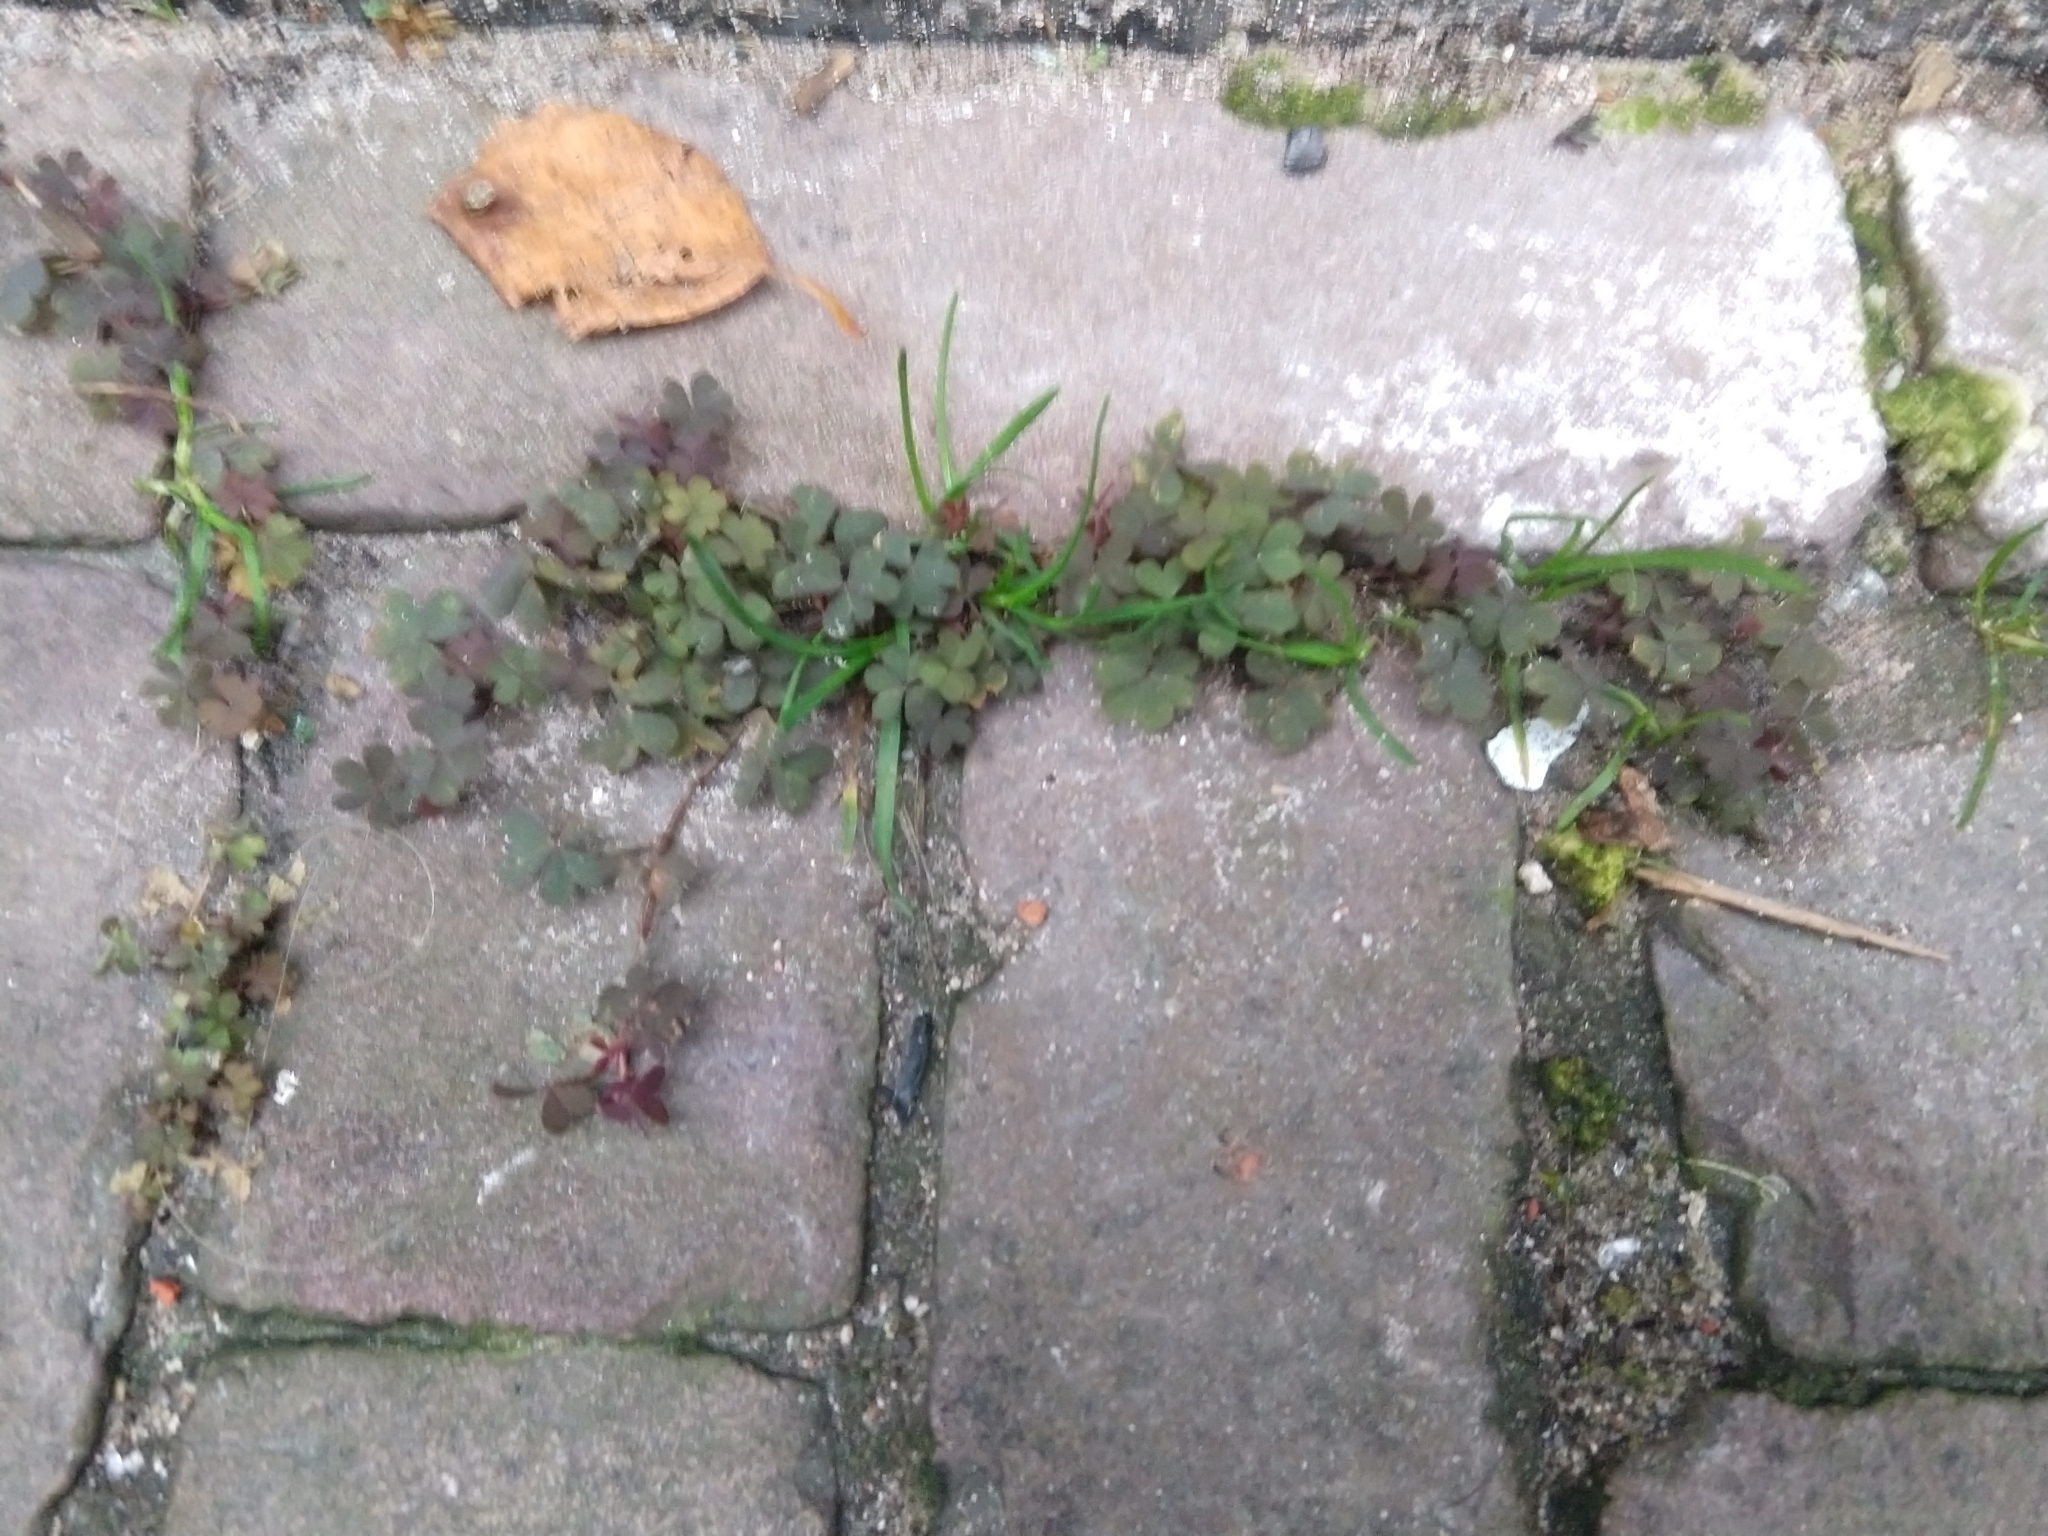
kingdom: Plantae
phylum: Tracheophyta
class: Magnoliopsida
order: Oxalidales
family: Oxalidaceae
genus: Oxalis
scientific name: Oxalis corniculata
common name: Procumbent yellow-sorrel
